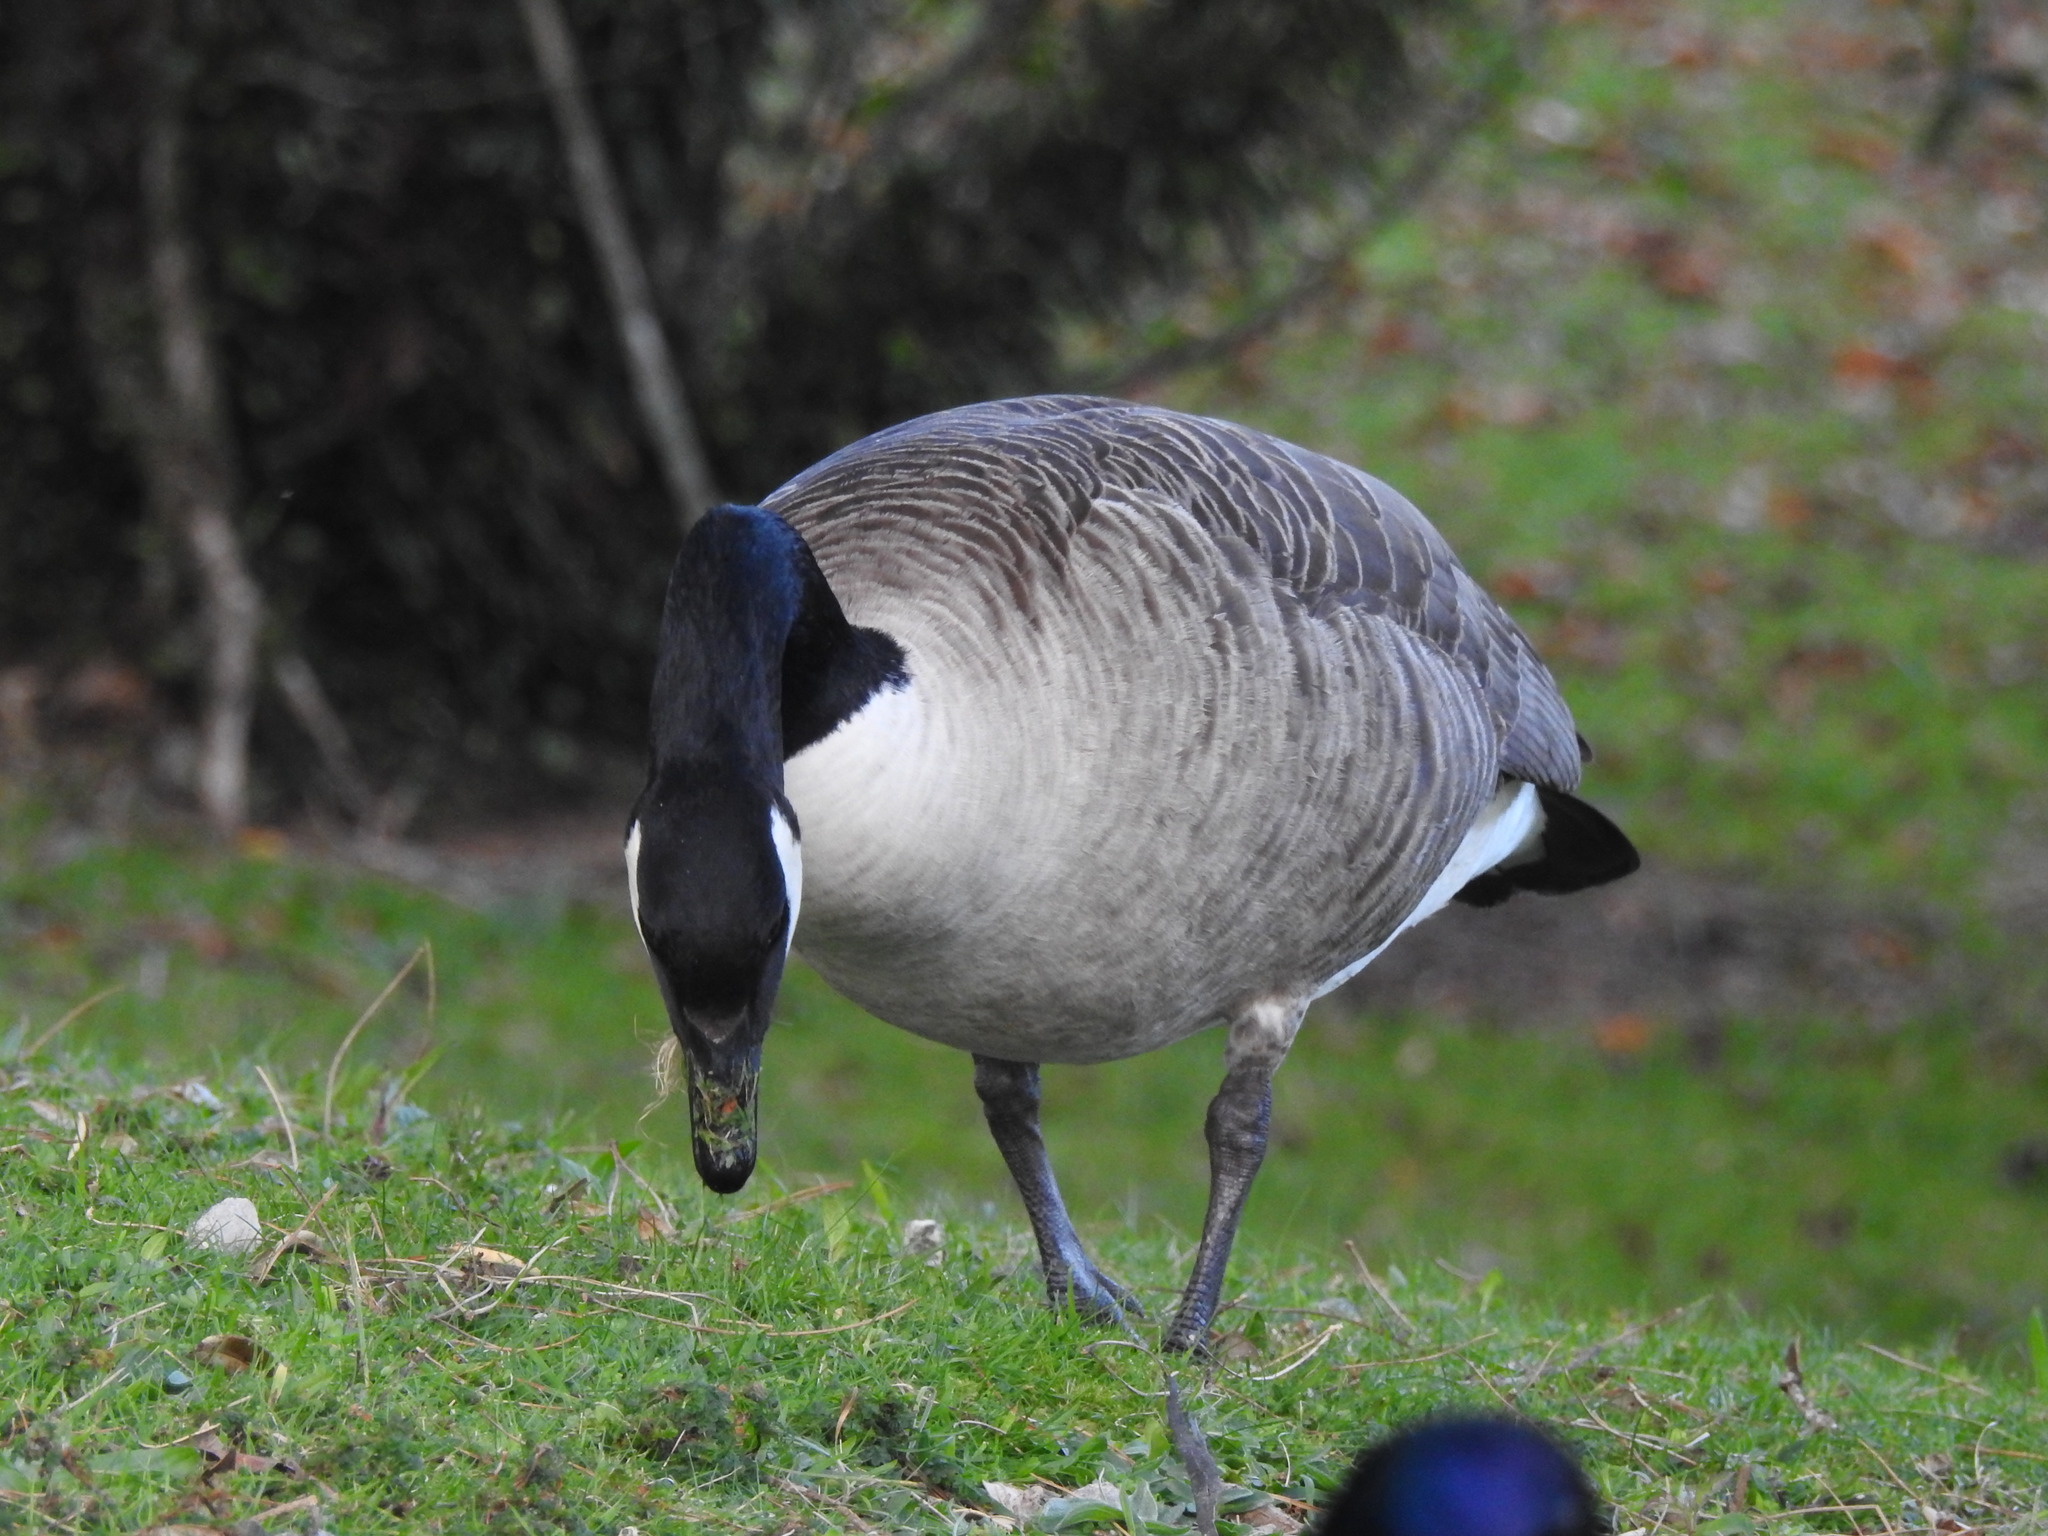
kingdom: Animalia
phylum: Chordata
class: Aves
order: Anseriformes
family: Anatidae
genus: Branta
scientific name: Branta canadensis
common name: Canada goose
